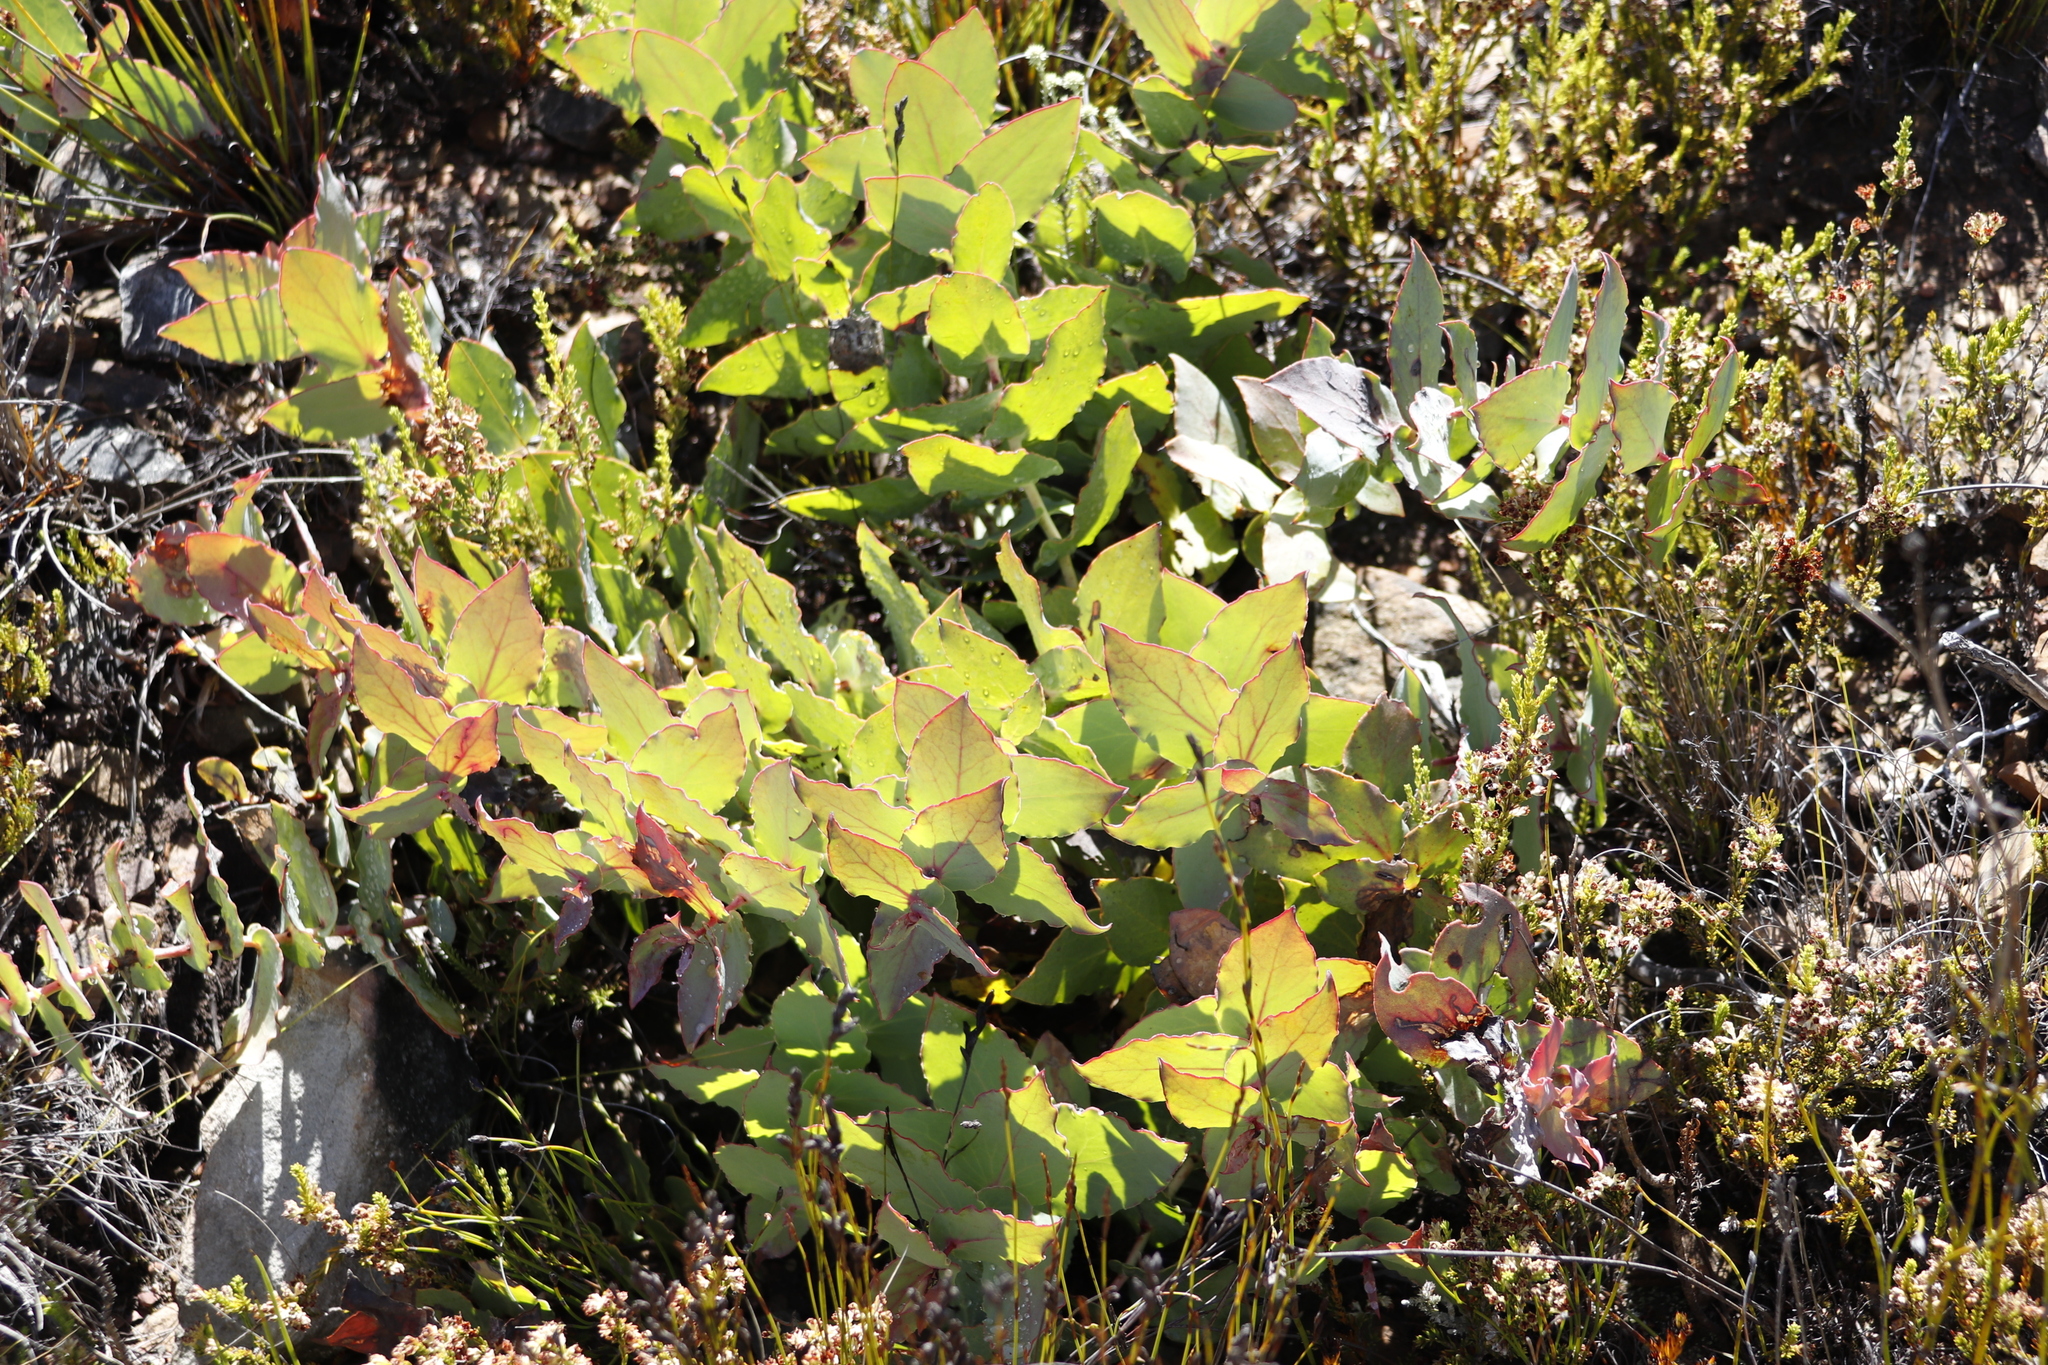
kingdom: Plantae
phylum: Tracheophyta
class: Magnoliopsida
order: Proteales
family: Proteaceae
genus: Protea
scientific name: Protea amplexicaulis
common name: Clasping-leaf sugarbush
